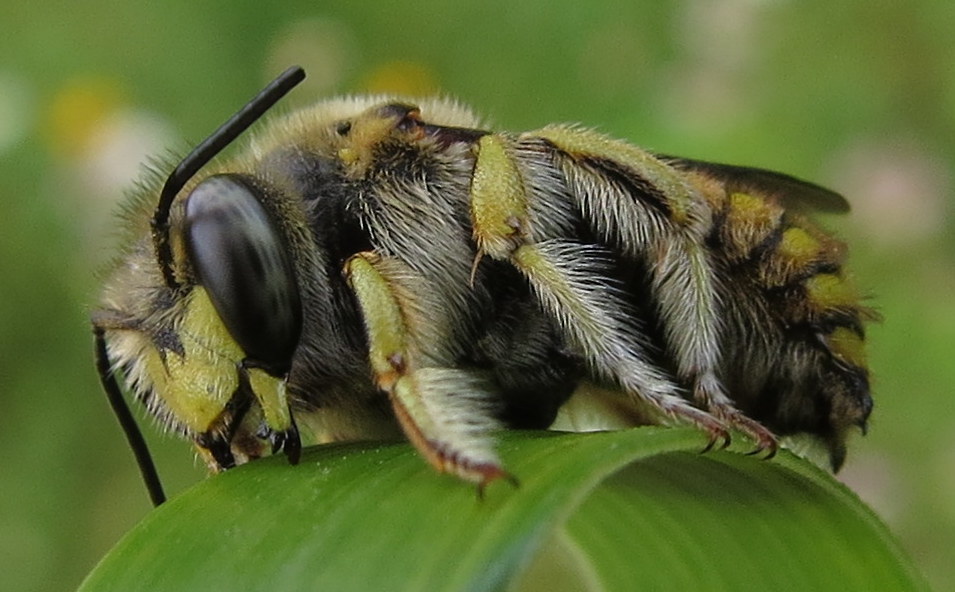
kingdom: Animalia
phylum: Arthropoda
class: Insecta
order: Hymenoptera
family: Megachilidae
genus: Anthidium
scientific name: Anthidium manicatum
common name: Wool carder bee
